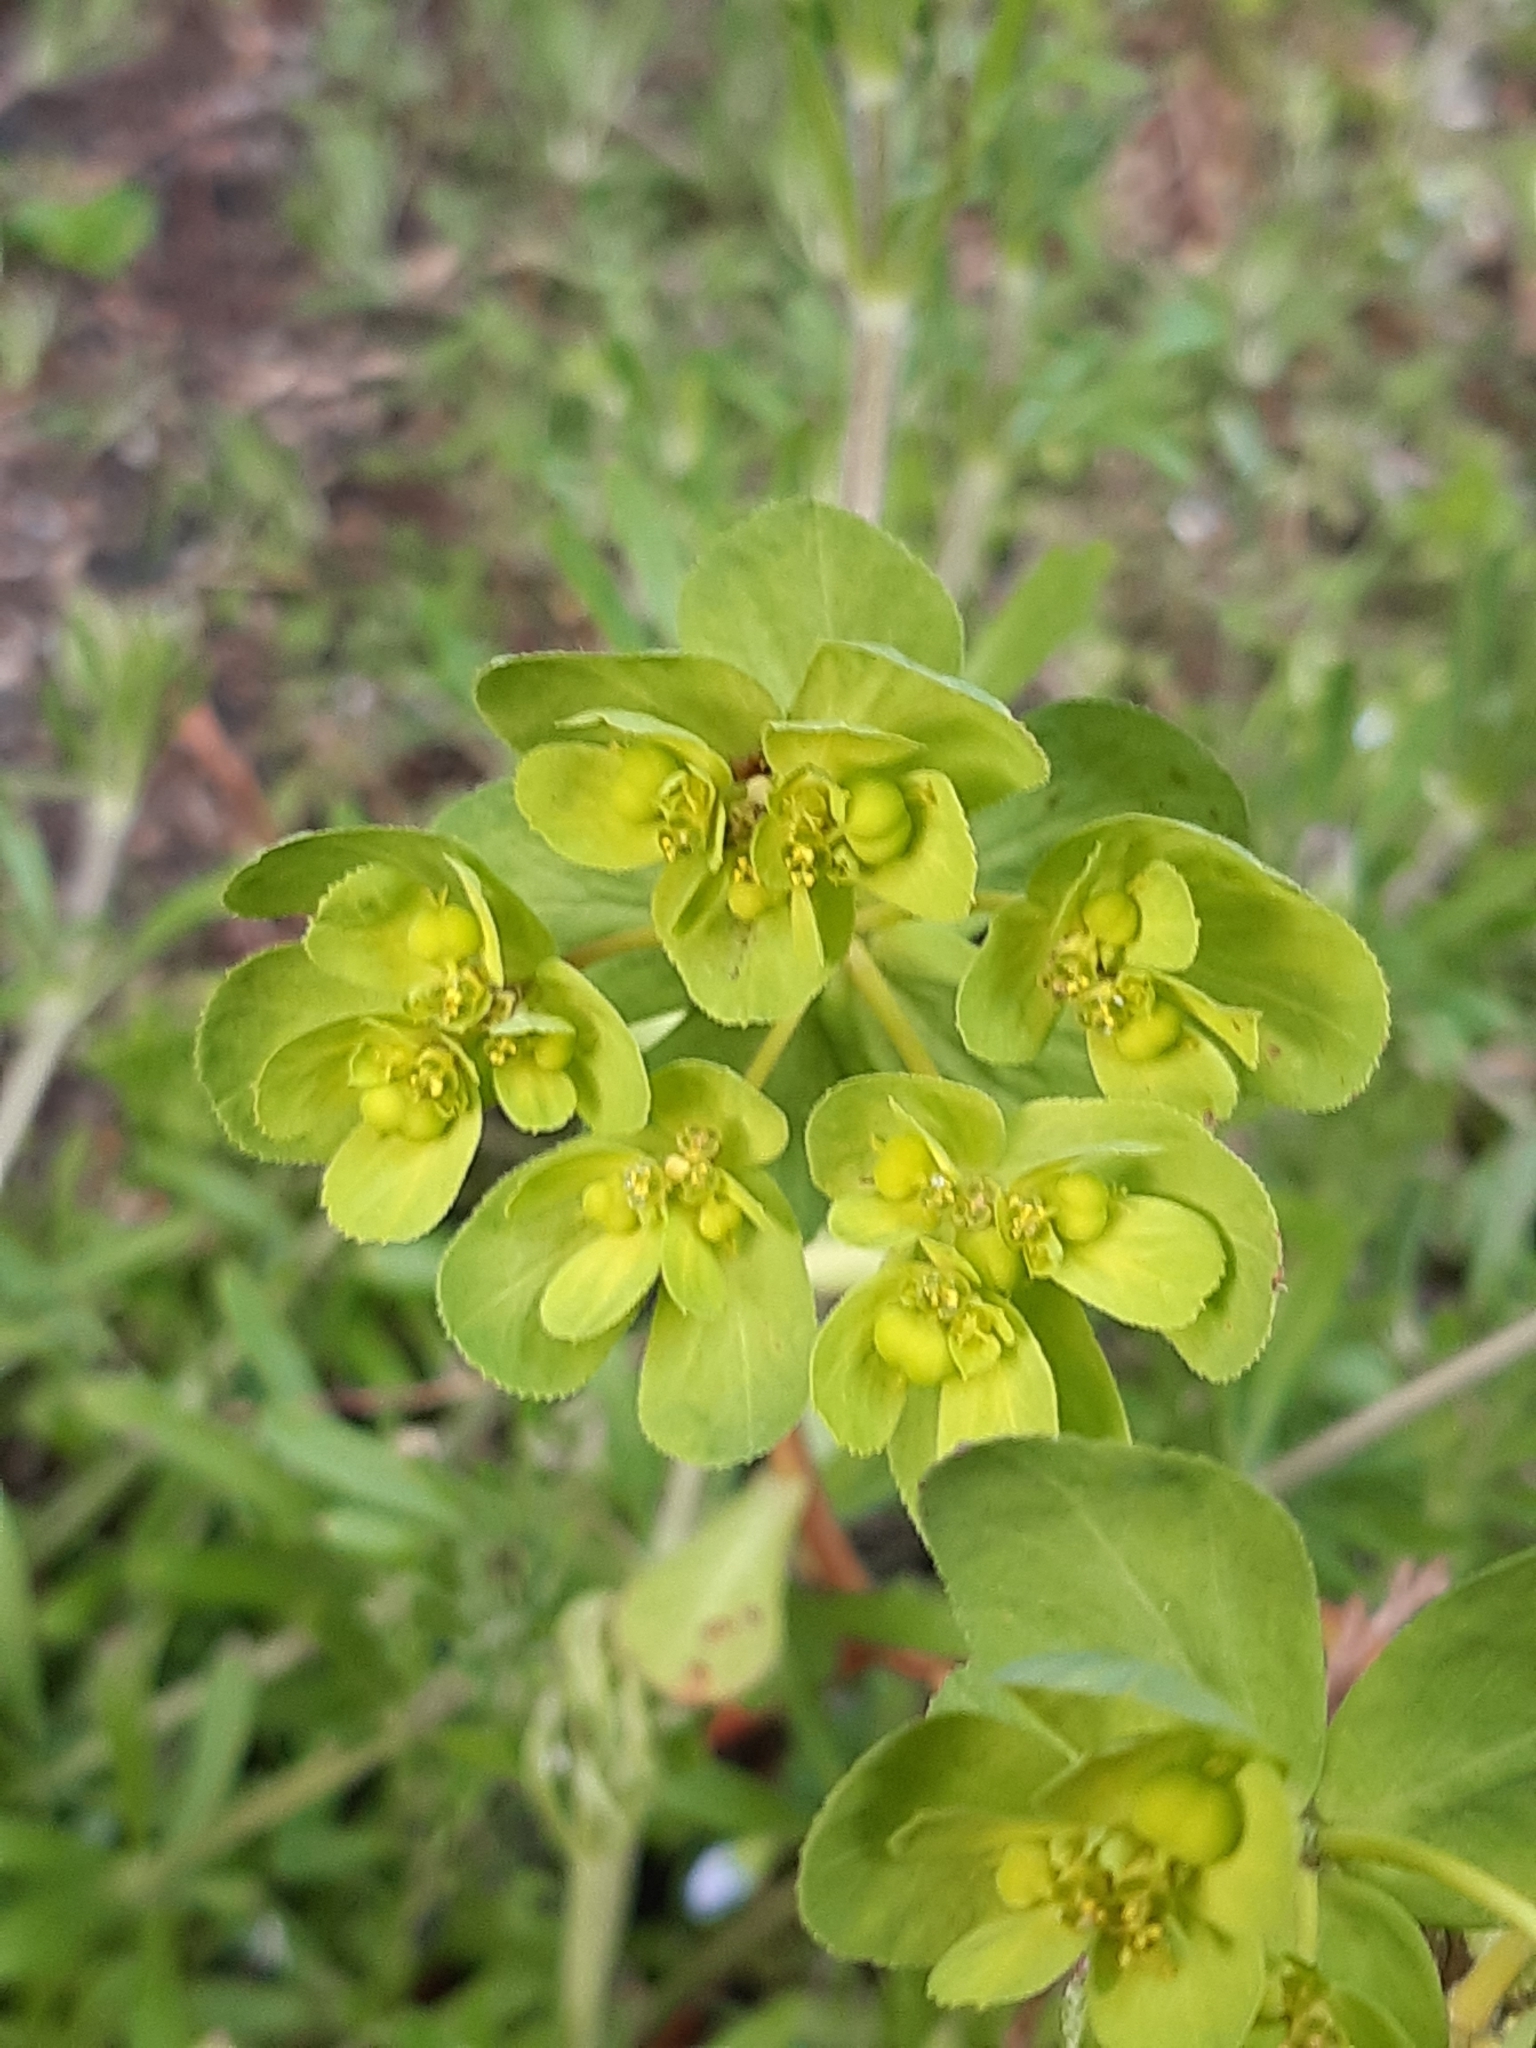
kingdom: Plantae
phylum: Tracheophyta
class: Magnoliopsida
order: Malpighiales
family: Euphorbiaceae
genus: Euphorbia
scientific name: Euphorbia helioscopia
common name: Sun spurge
